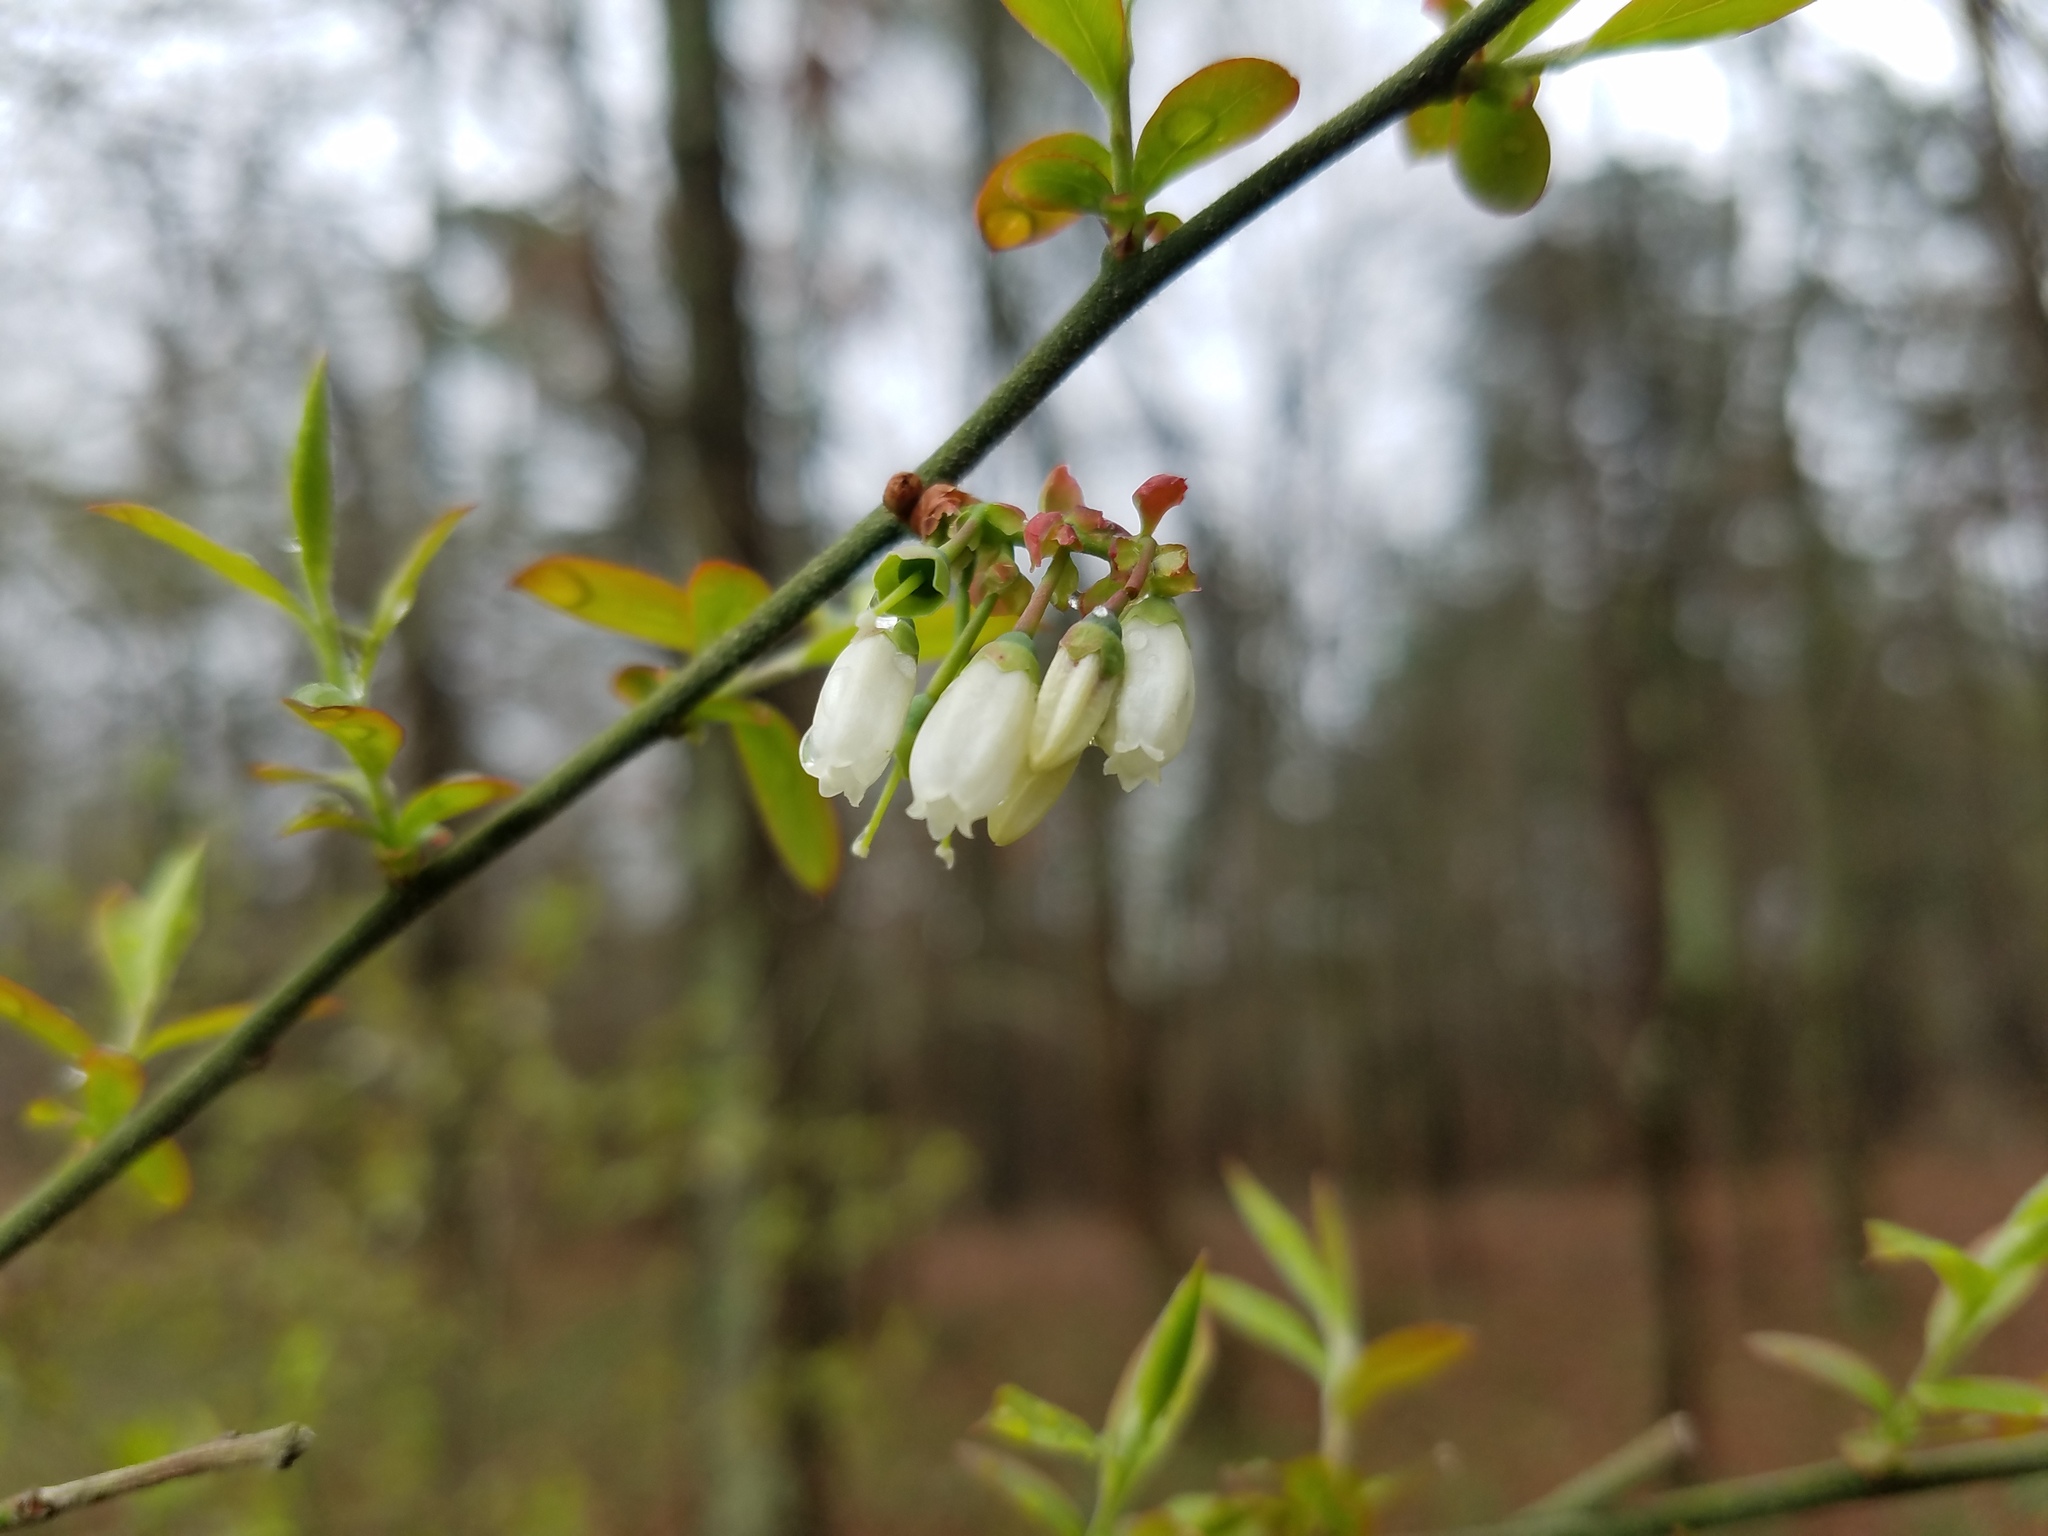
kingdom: Plantae
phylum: Tracheophyta
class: Magnoliopsida
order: Ericales
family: Ericaceae
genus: Vaccinium
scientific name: Vaccinium corymbosum
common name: Blueberry
